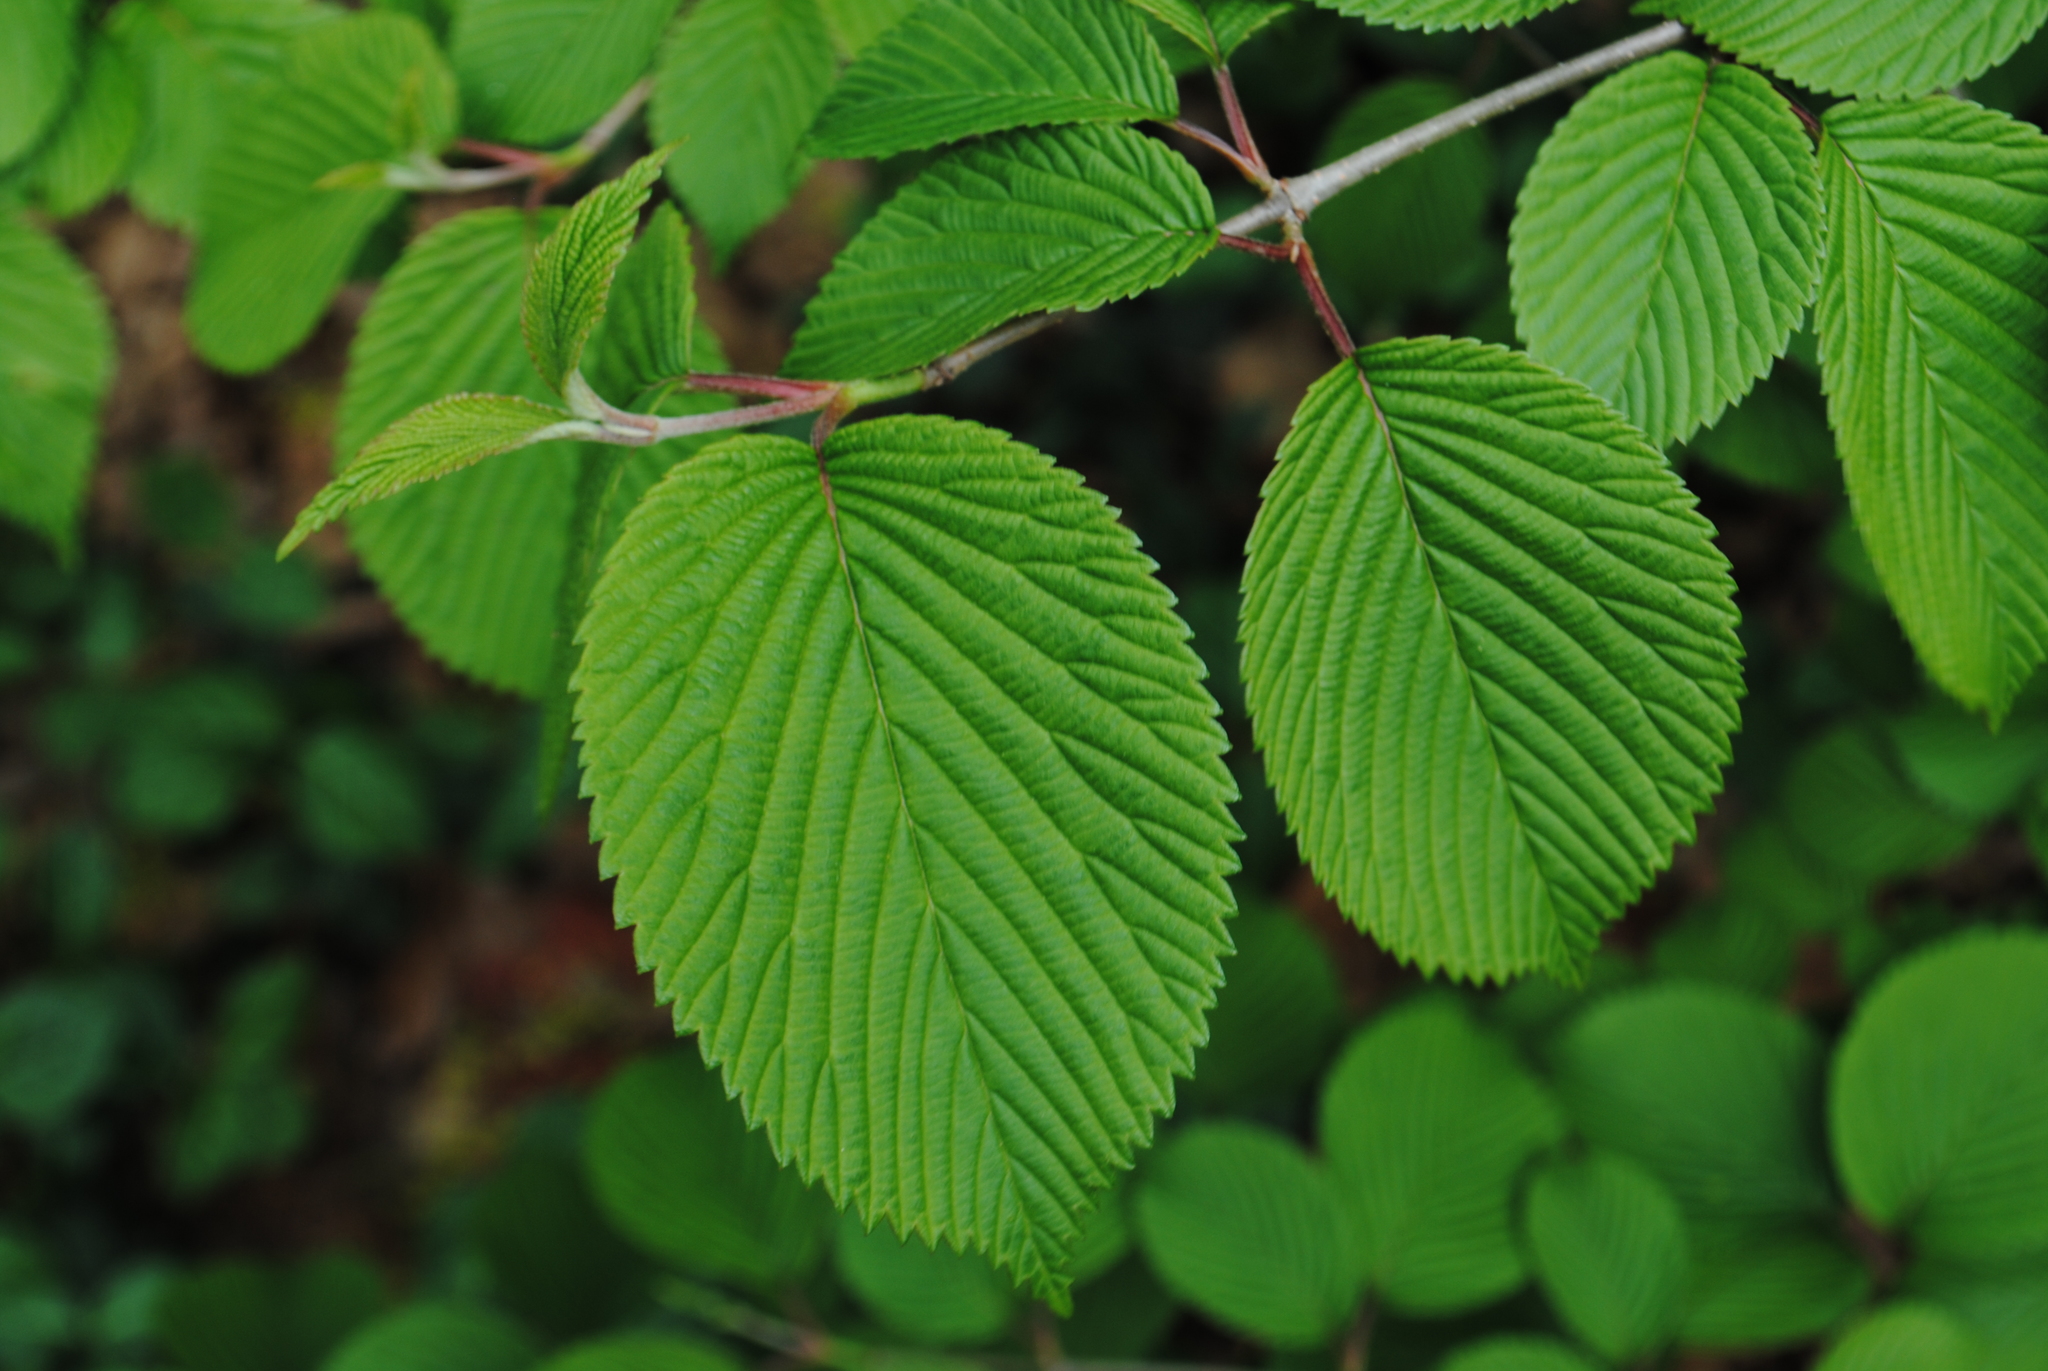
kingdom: Plantae
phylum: Tracheophyta
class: Magnoliopsida
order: Dipsacales
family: Viburnaceae
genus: Viburnum
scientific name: Viburnum plicatum
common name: Japanese snowball
